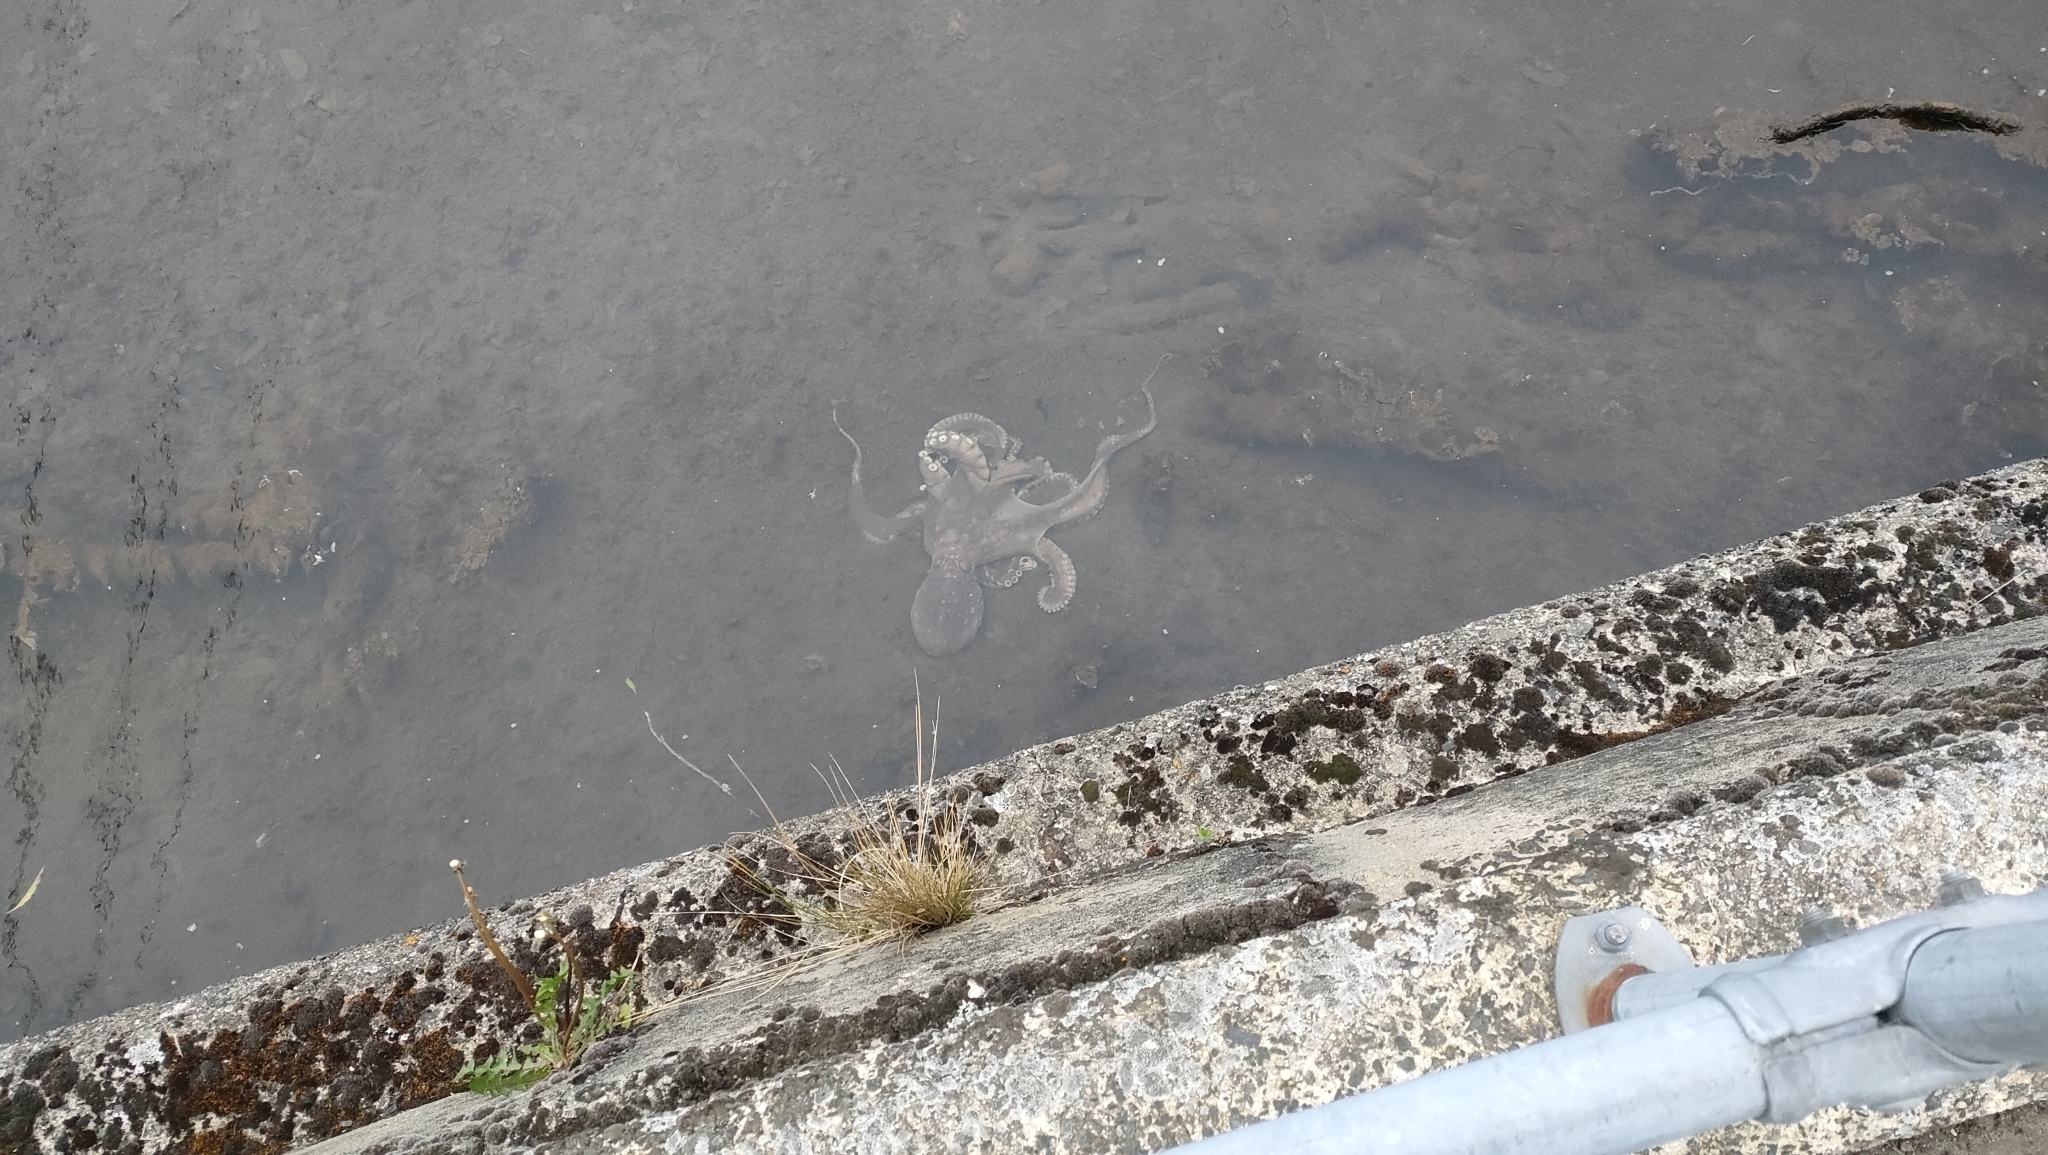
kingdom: Animalia
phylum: Mollusca
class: Cephalopoda
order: Octopoda
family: Octopodidae
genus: Macroctopus
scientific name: Macroctopus maorum
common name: Maori octopus
